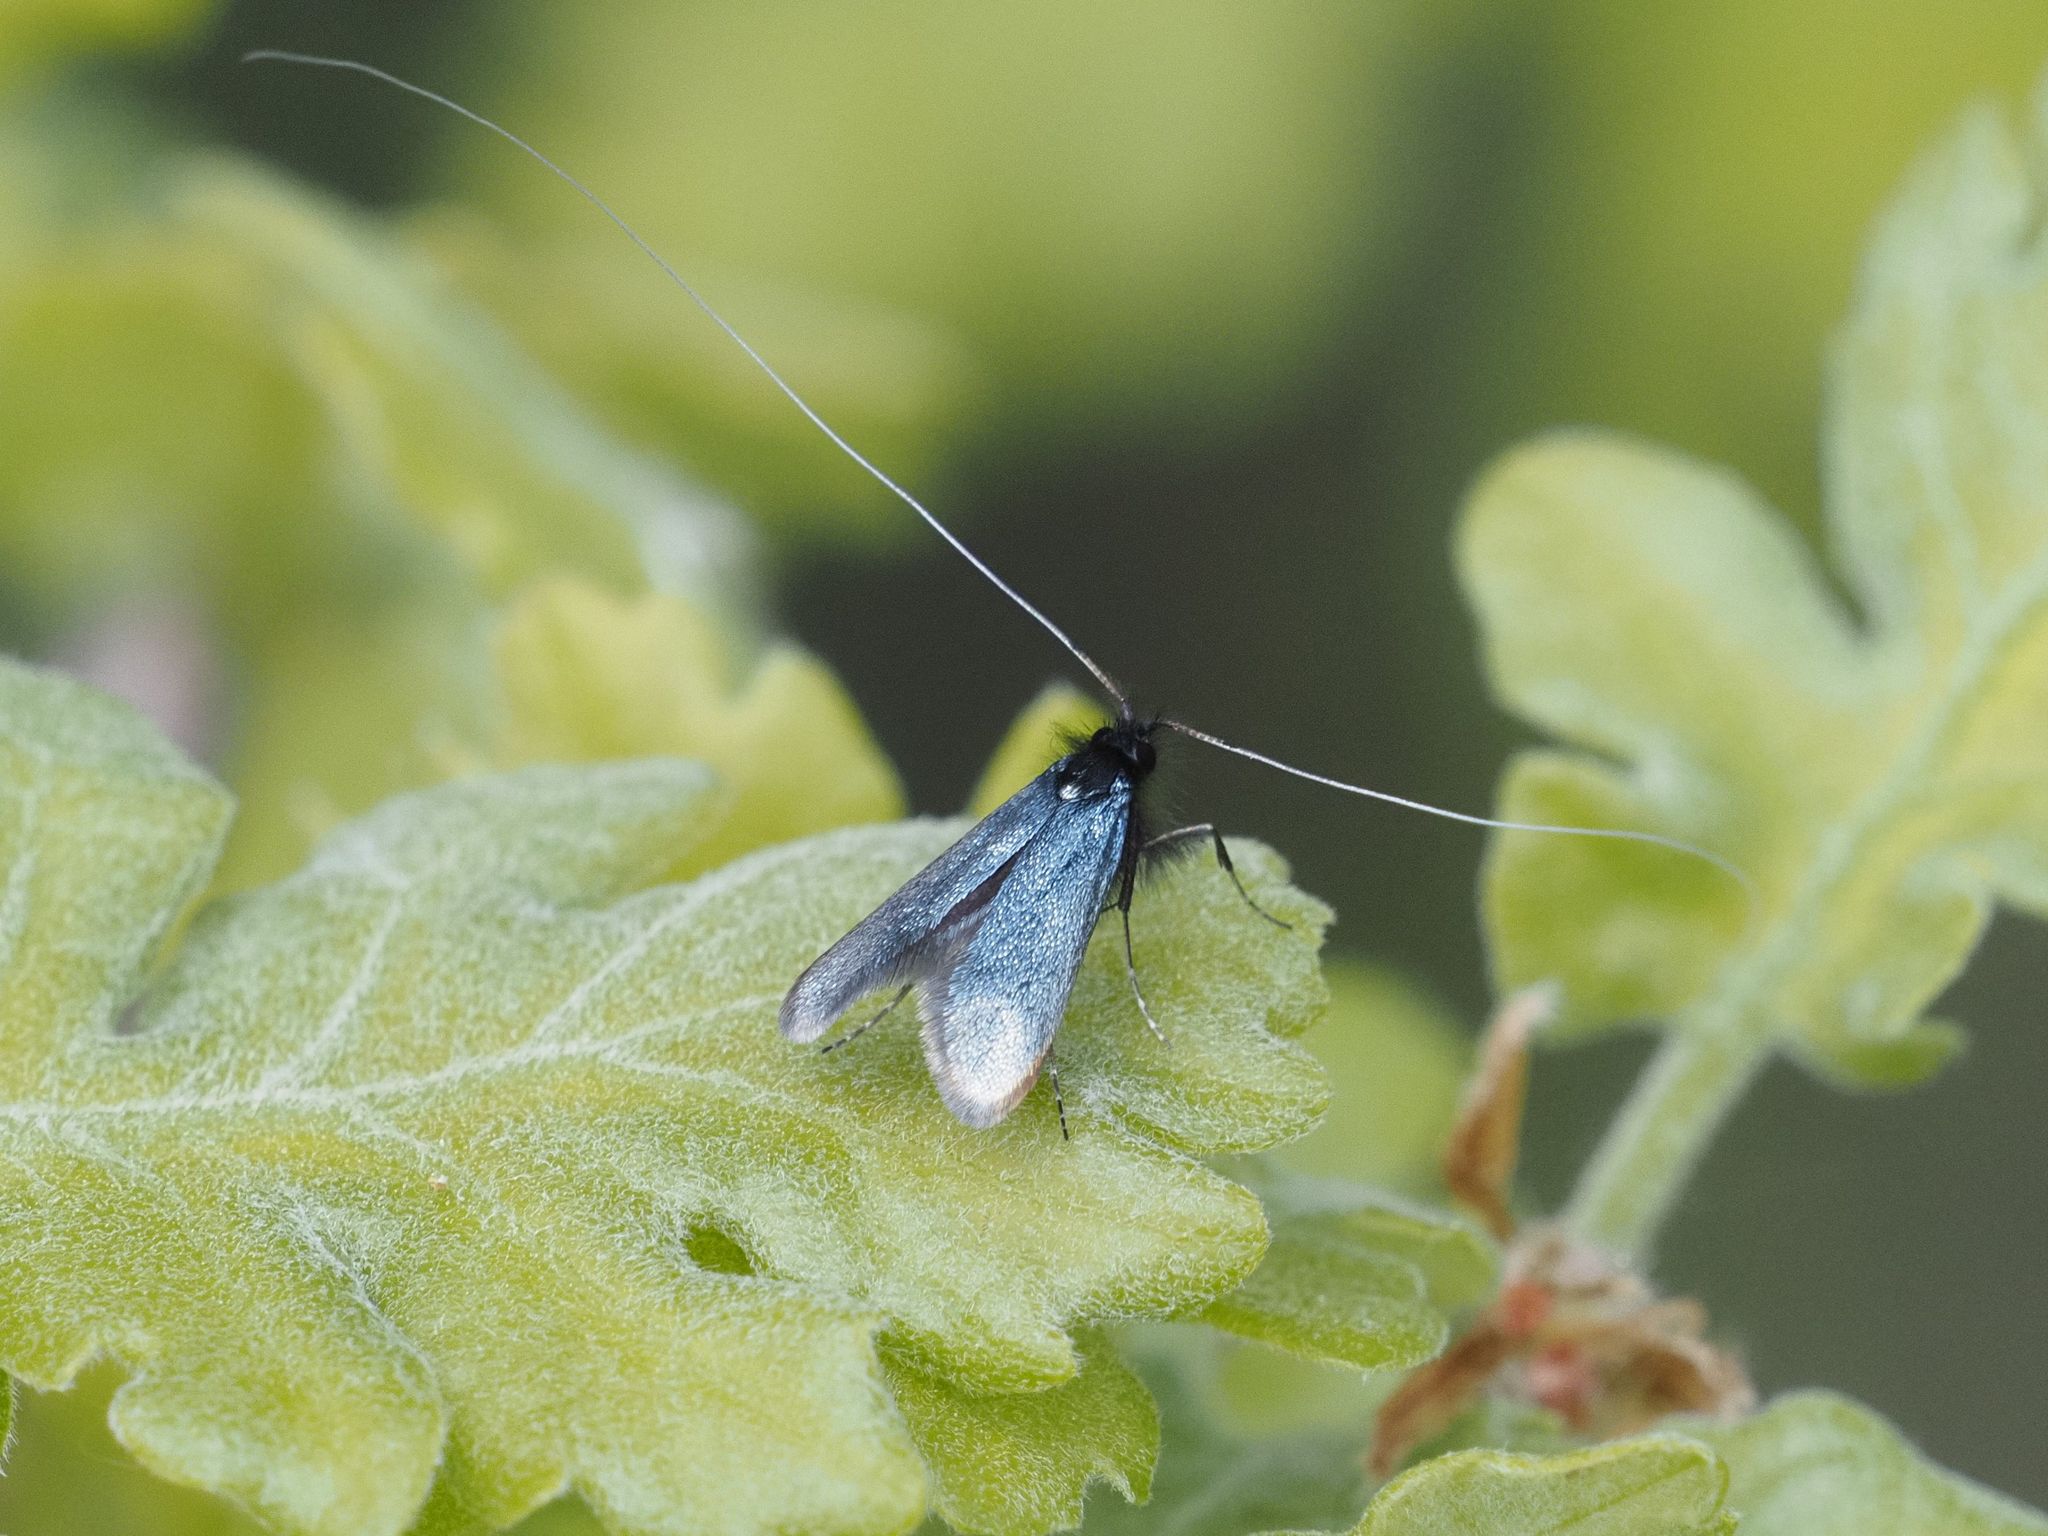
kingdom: Animalia
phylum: Arthropoda
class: Insecta
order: Lepidoptera
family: Adelidae
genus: Adela
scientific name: Adela viridella
